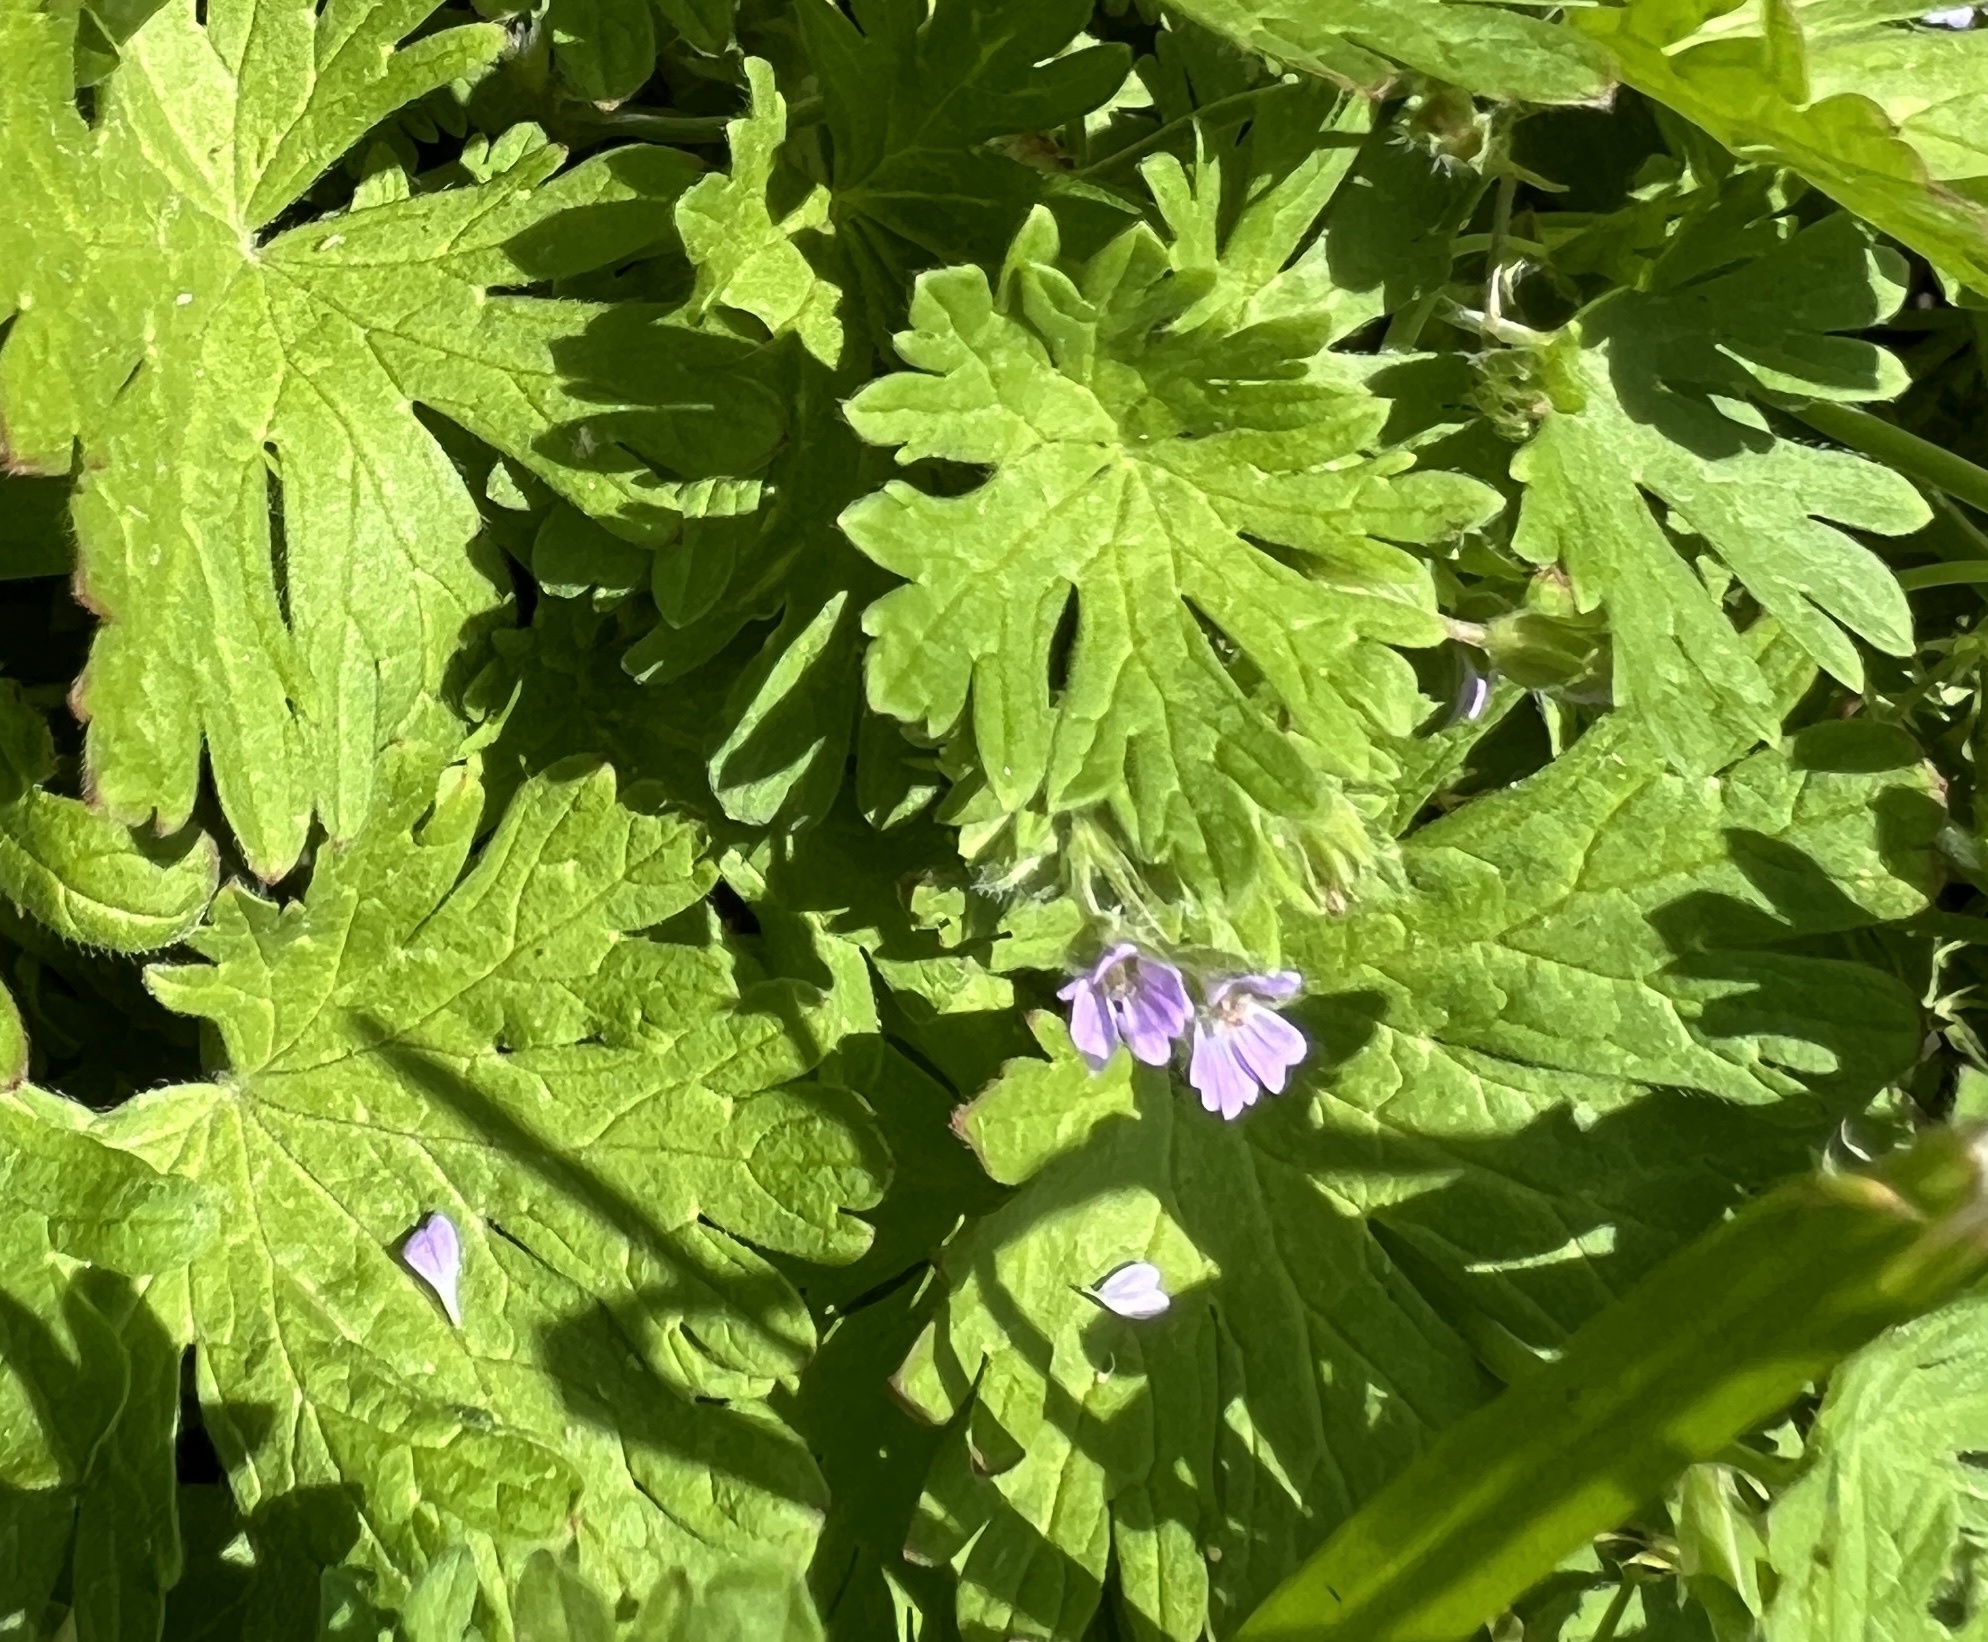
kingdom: Plantae
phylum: Tracheophyta
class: Magnoliopsida
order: Geraniales
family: Geraniaceae
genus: Geranium
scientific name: Geranium pusillum
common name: Small geranium
